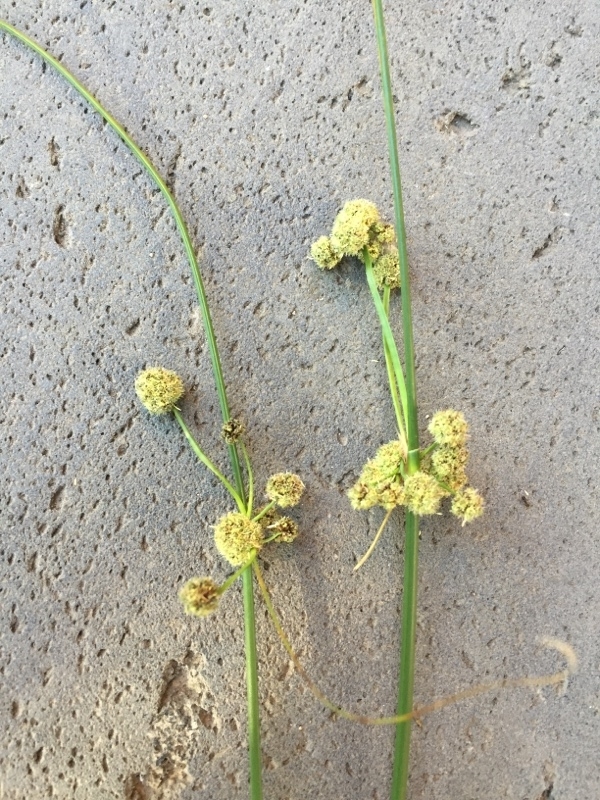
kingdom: Plantae
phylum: Tracheophyta
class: Liliopsida
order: Poales
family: Cyperaceae
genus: Scirpoides
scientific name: Scirpoides holoschoenus
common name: Round-headed club-rush
